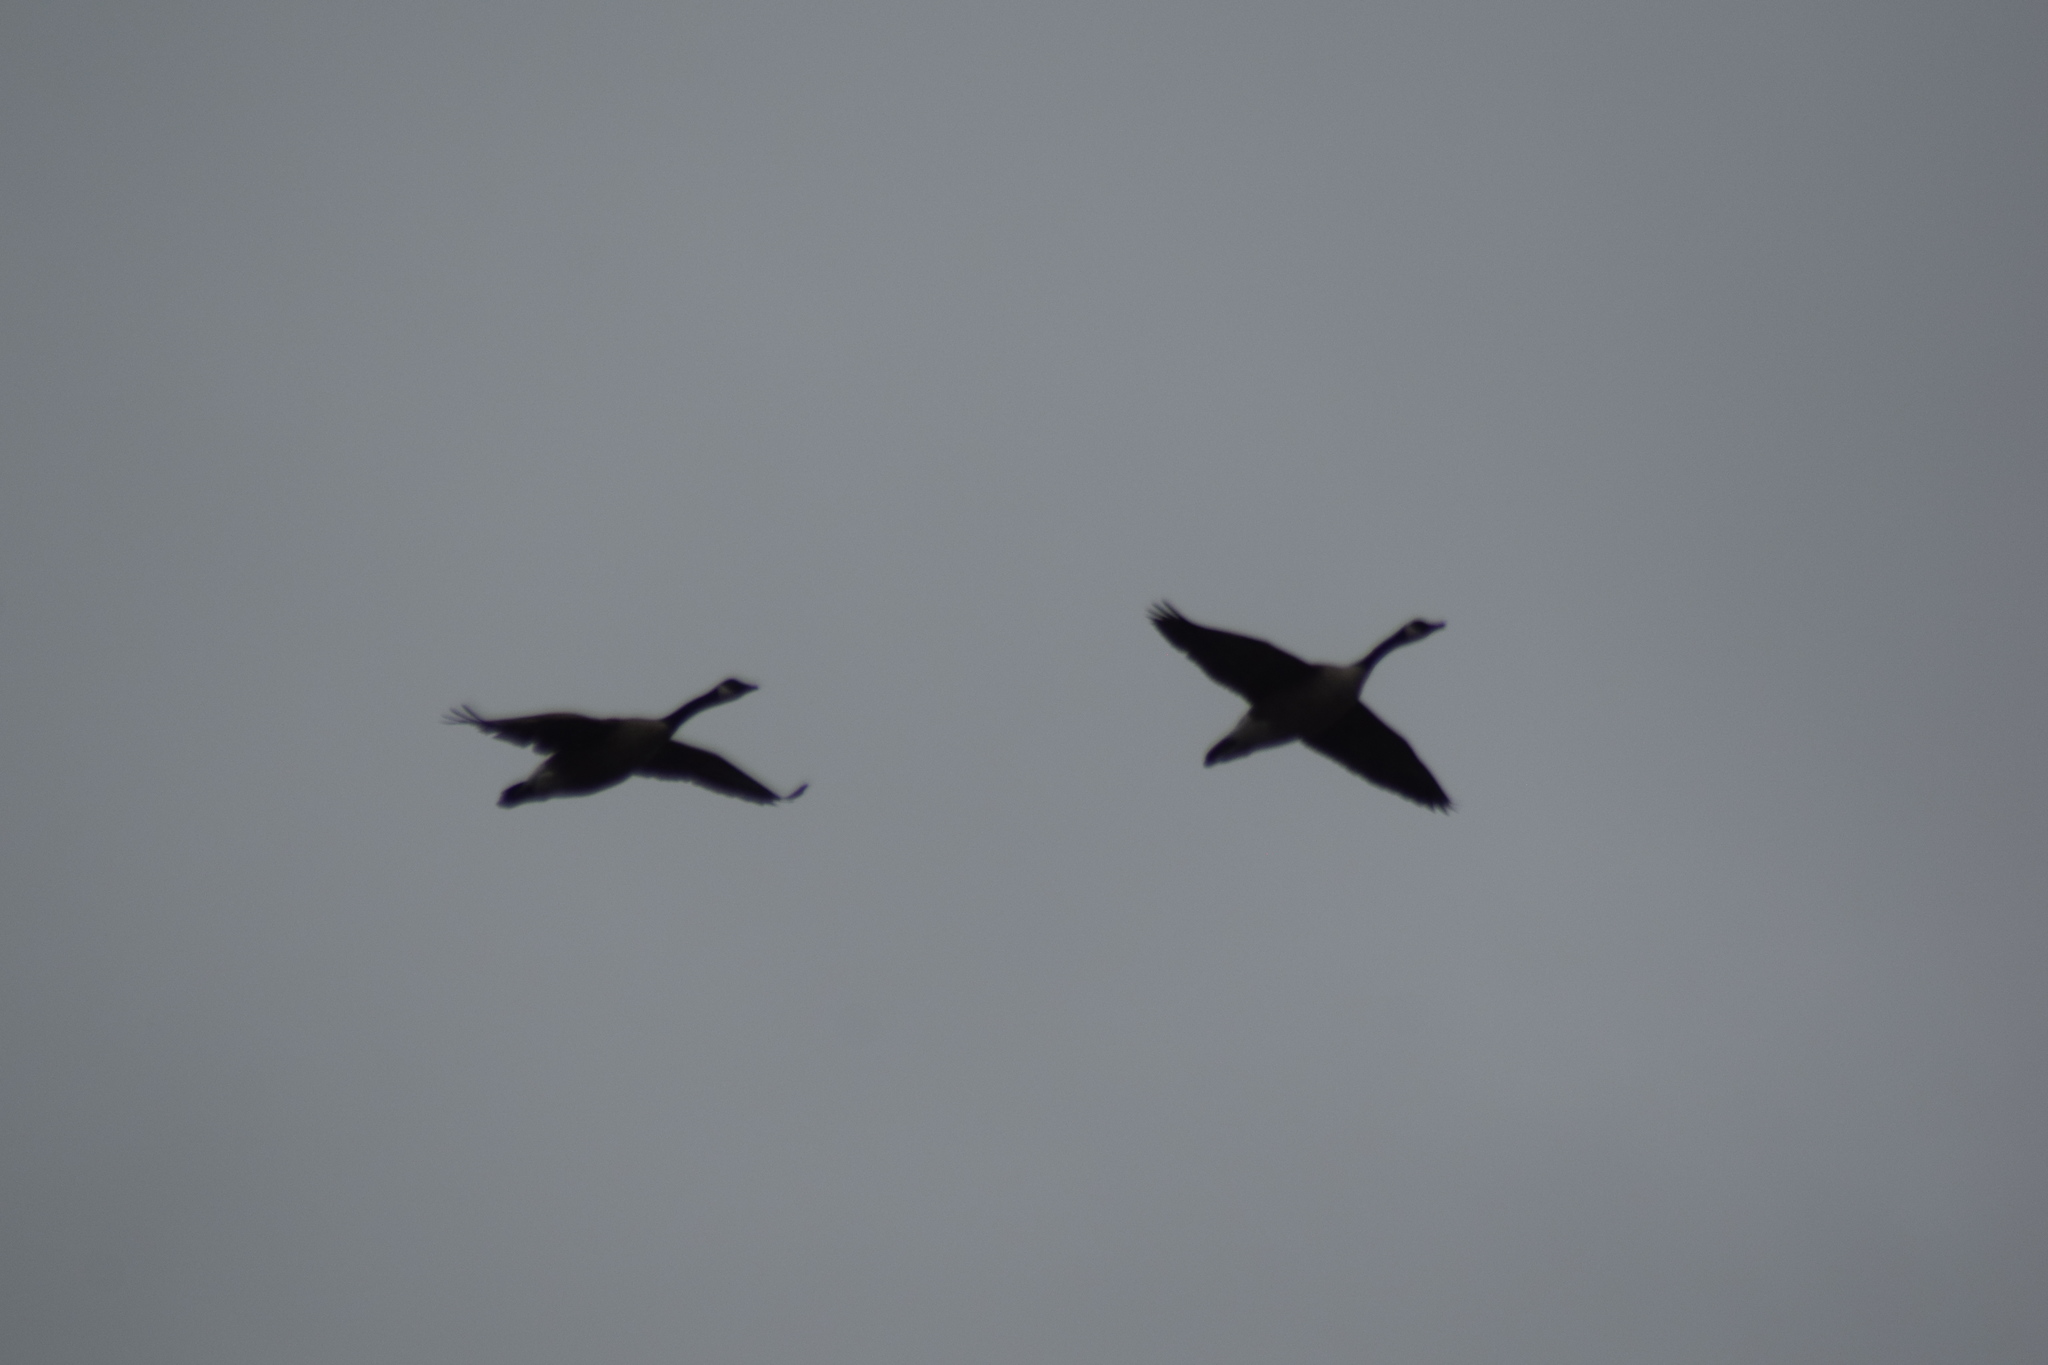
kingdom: Animalia
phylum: Chordata
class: Aves
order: Anseriformes
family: Anatidae
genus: Branta
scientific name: Branta canadensis
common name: Canada goose
